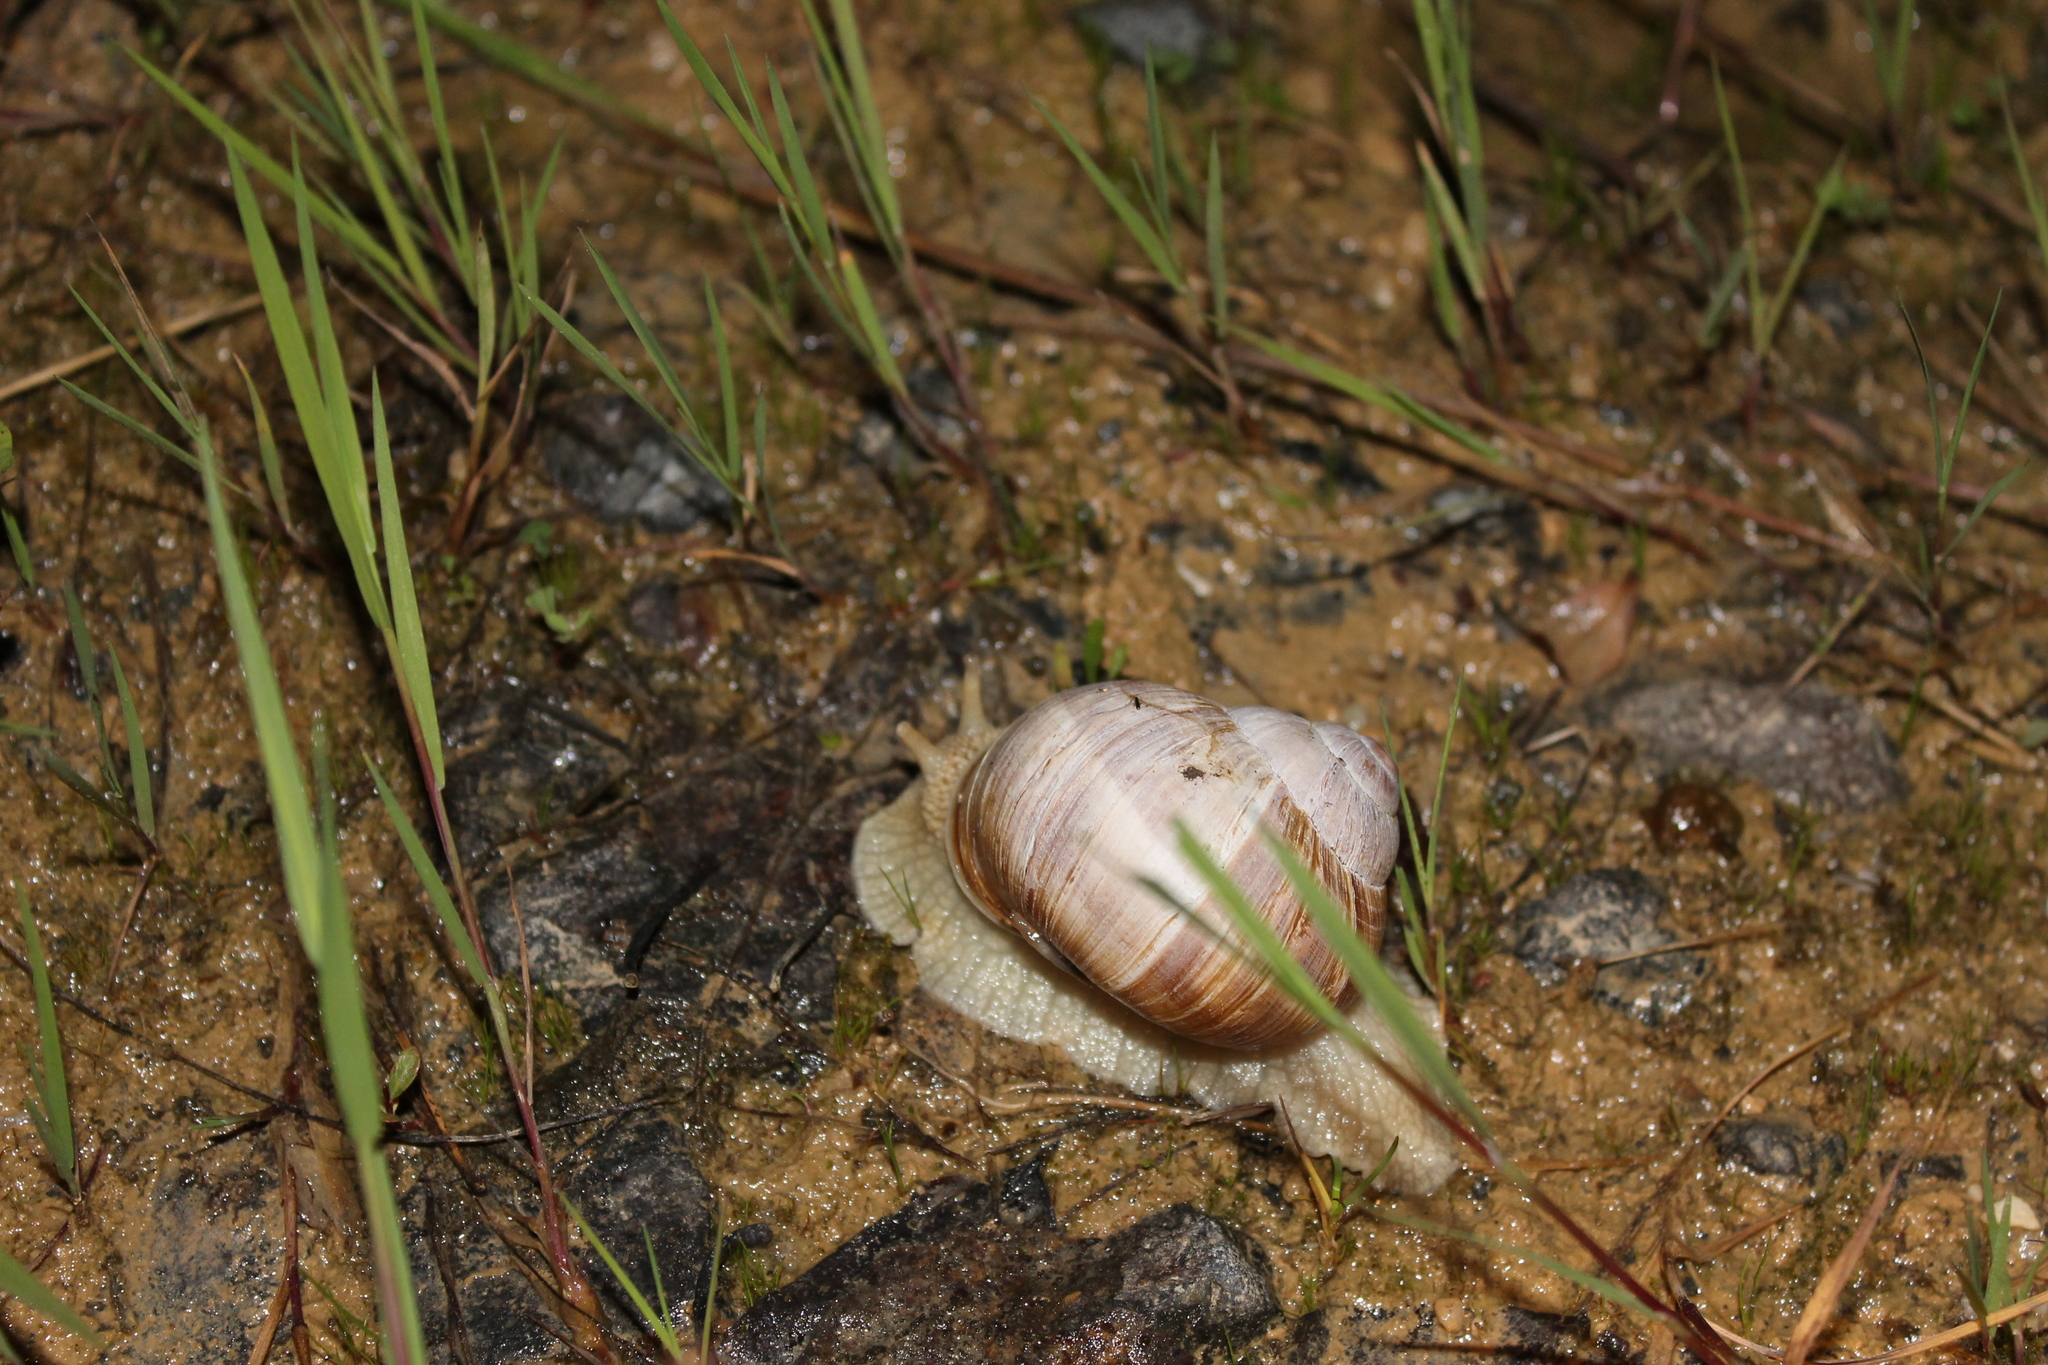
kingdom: Animalia
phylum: Mollusca
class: Gastropoda
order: Stylommatophora
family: Helicidae
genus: Helix
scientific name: Helix pomatia
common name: Roman snail
